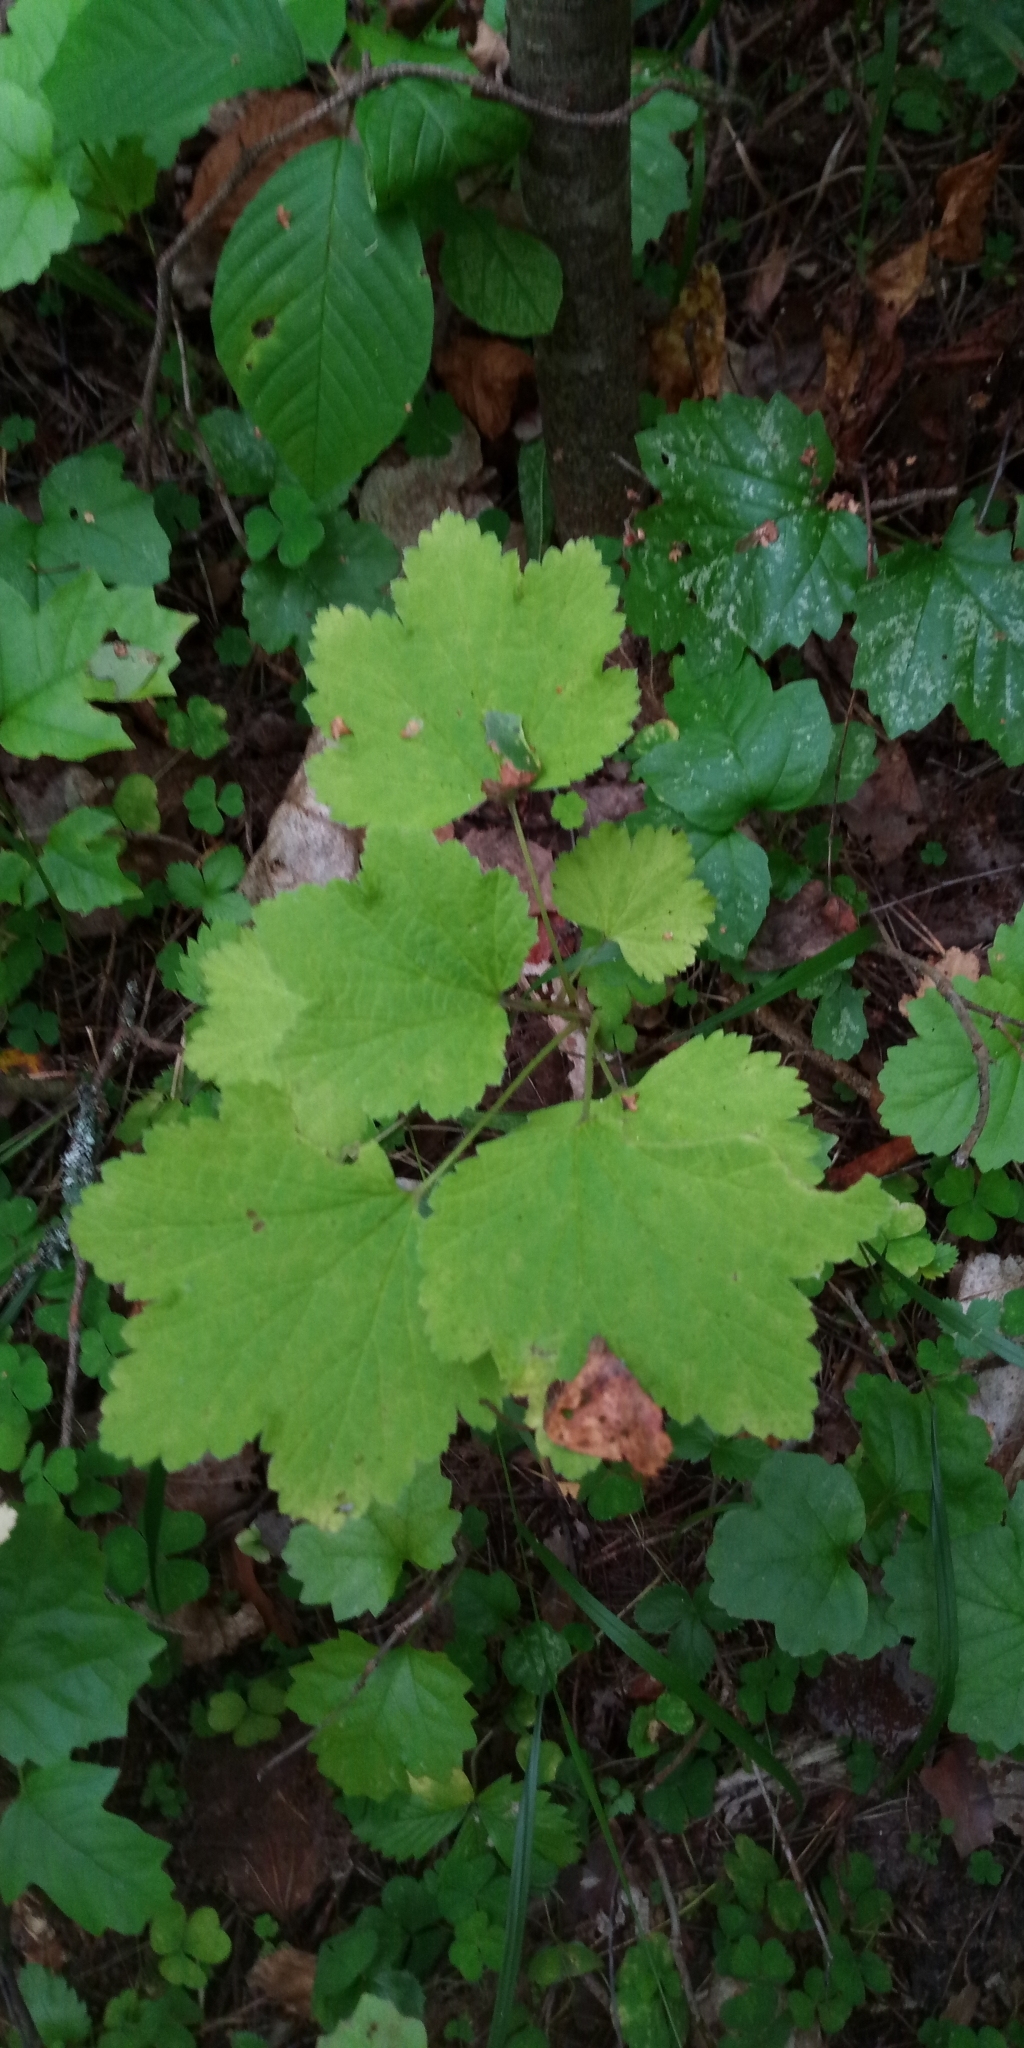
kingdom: Plantae
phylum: Tracheophyta
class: Magnoliopsida
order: Saxifragales
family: Grossulariaceae
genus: Ribes
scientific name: Ribes spicatum
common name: Downy currant
